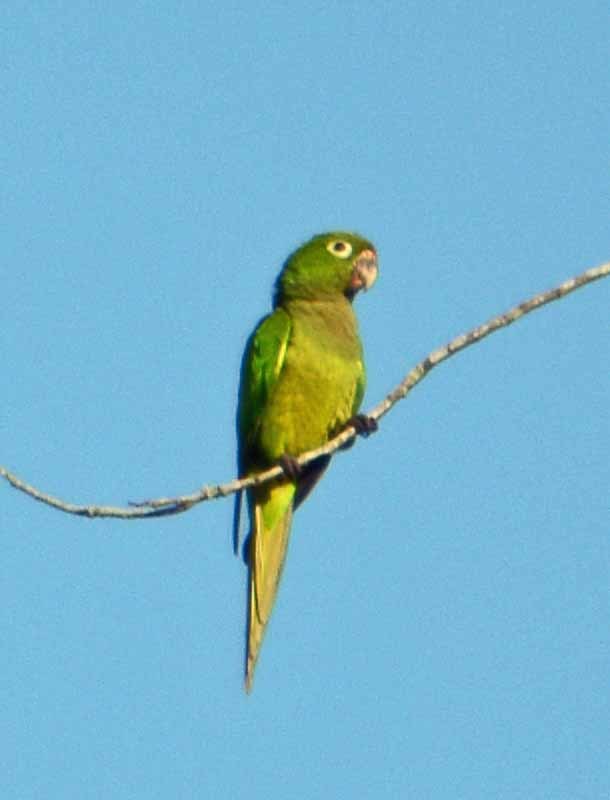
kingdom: Animalia
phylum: Chordata
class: Aves
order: Psittaciformes
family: Psittacidae
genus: Aratinga
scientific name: Aratinga nana
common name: Olive-throated parakeet
